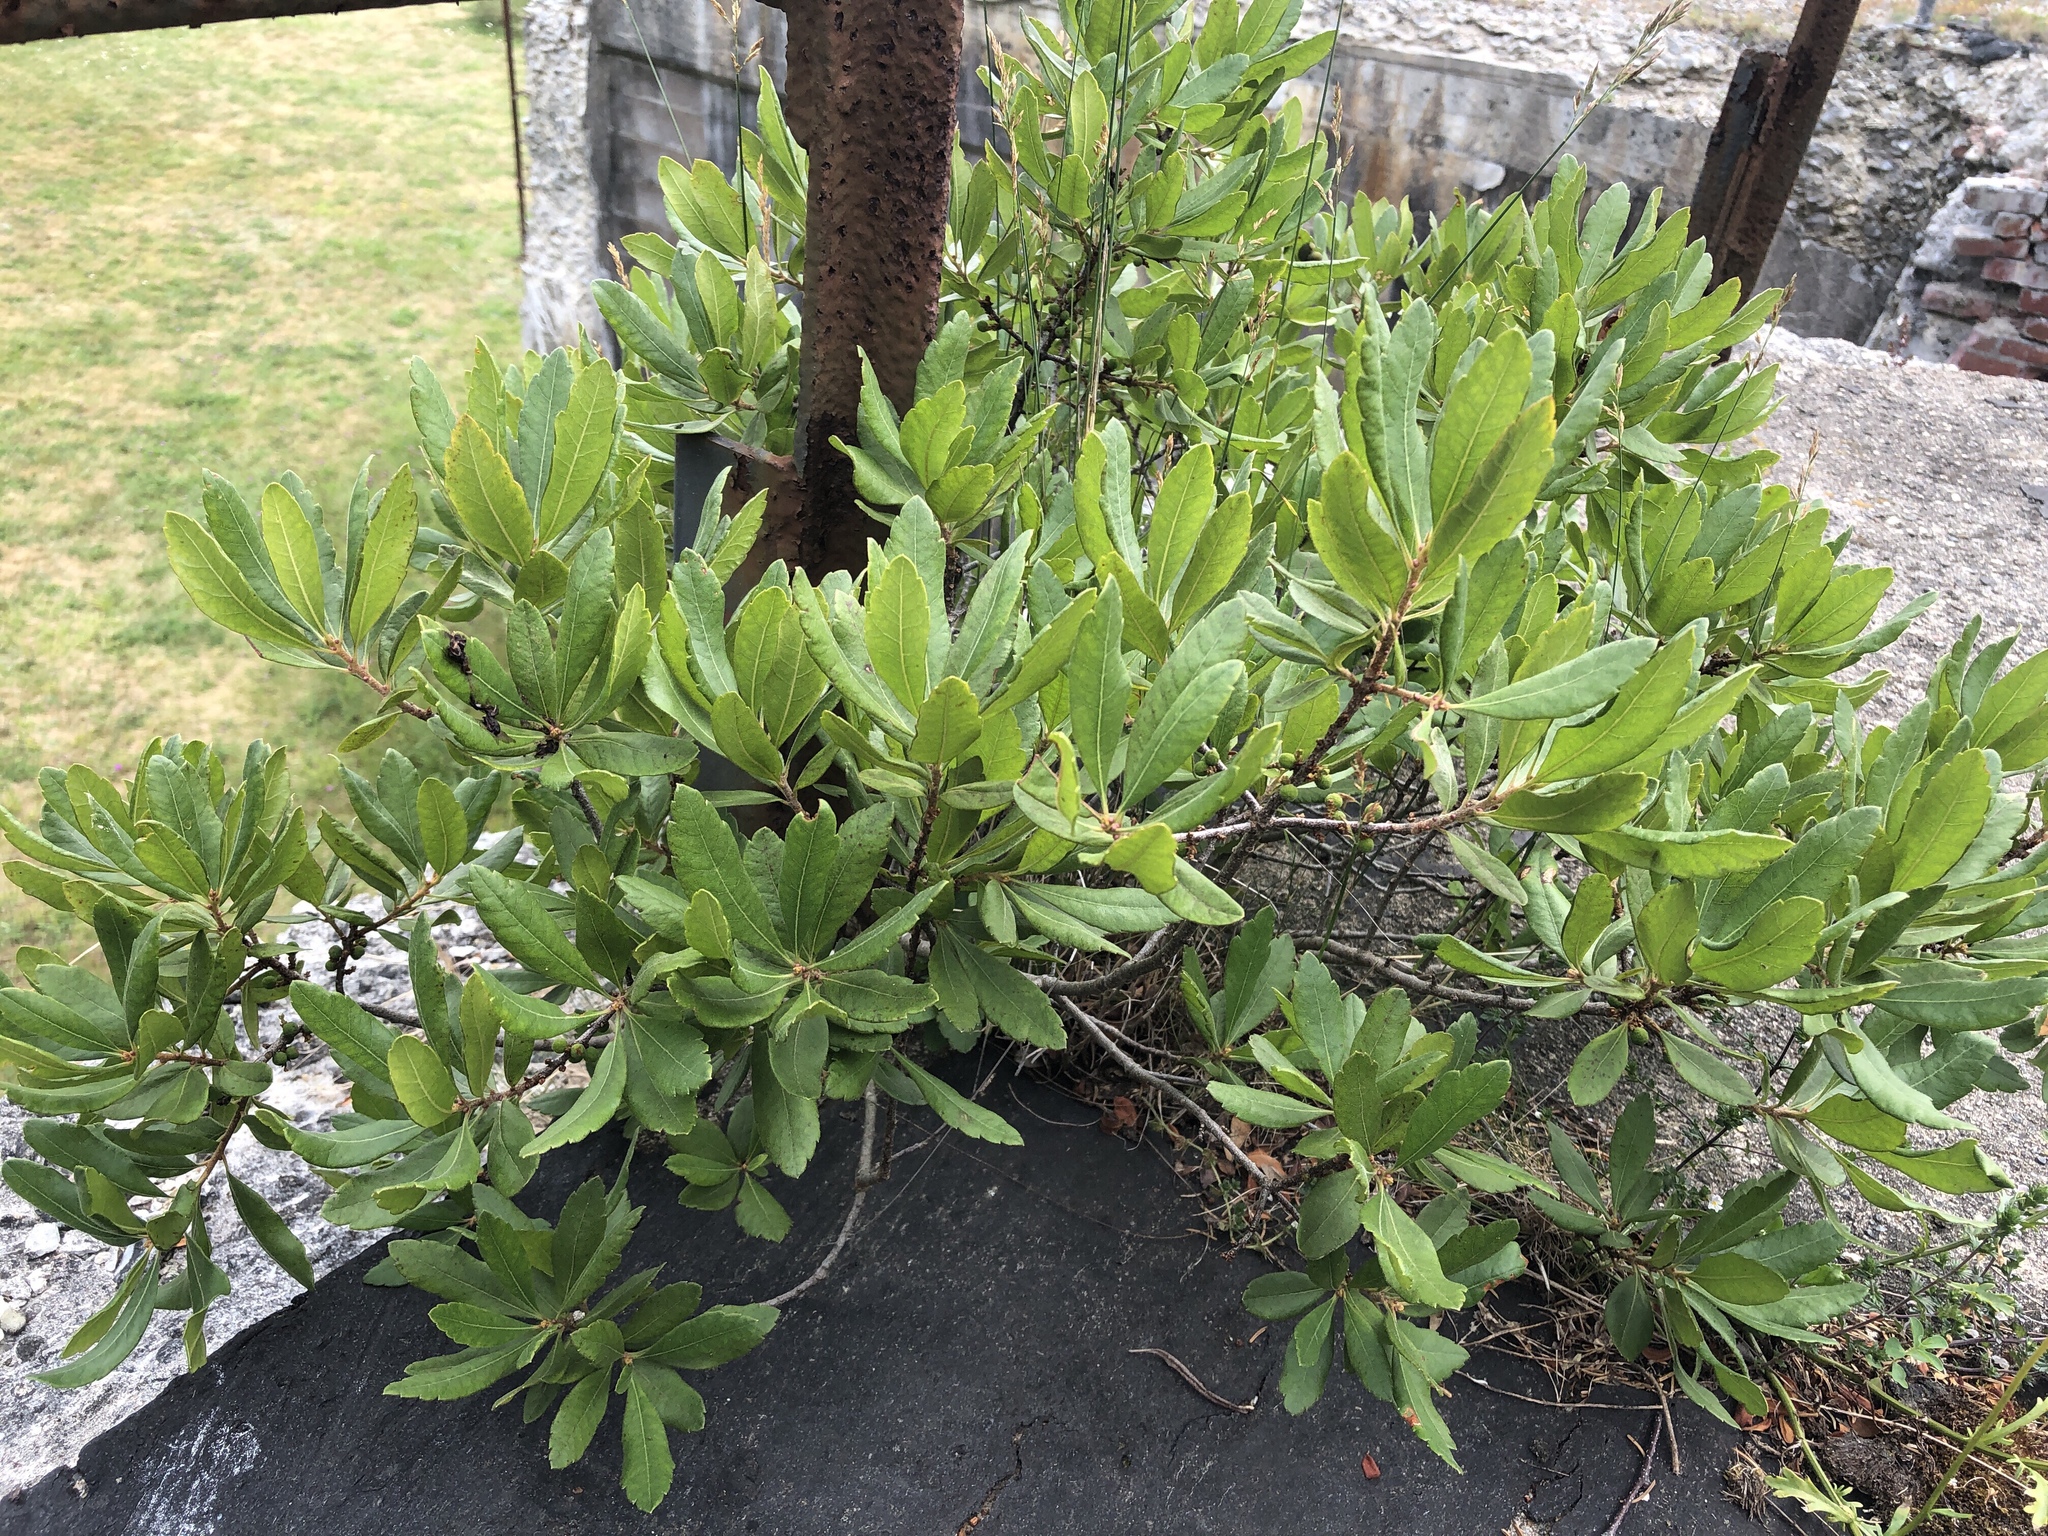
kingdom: Plantae
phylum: Tracheophyta
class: Magnoliopsida
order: Fagales
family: Myricaceae
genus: Morella
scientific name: Morella pensylvanica
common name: Northern bayberry
